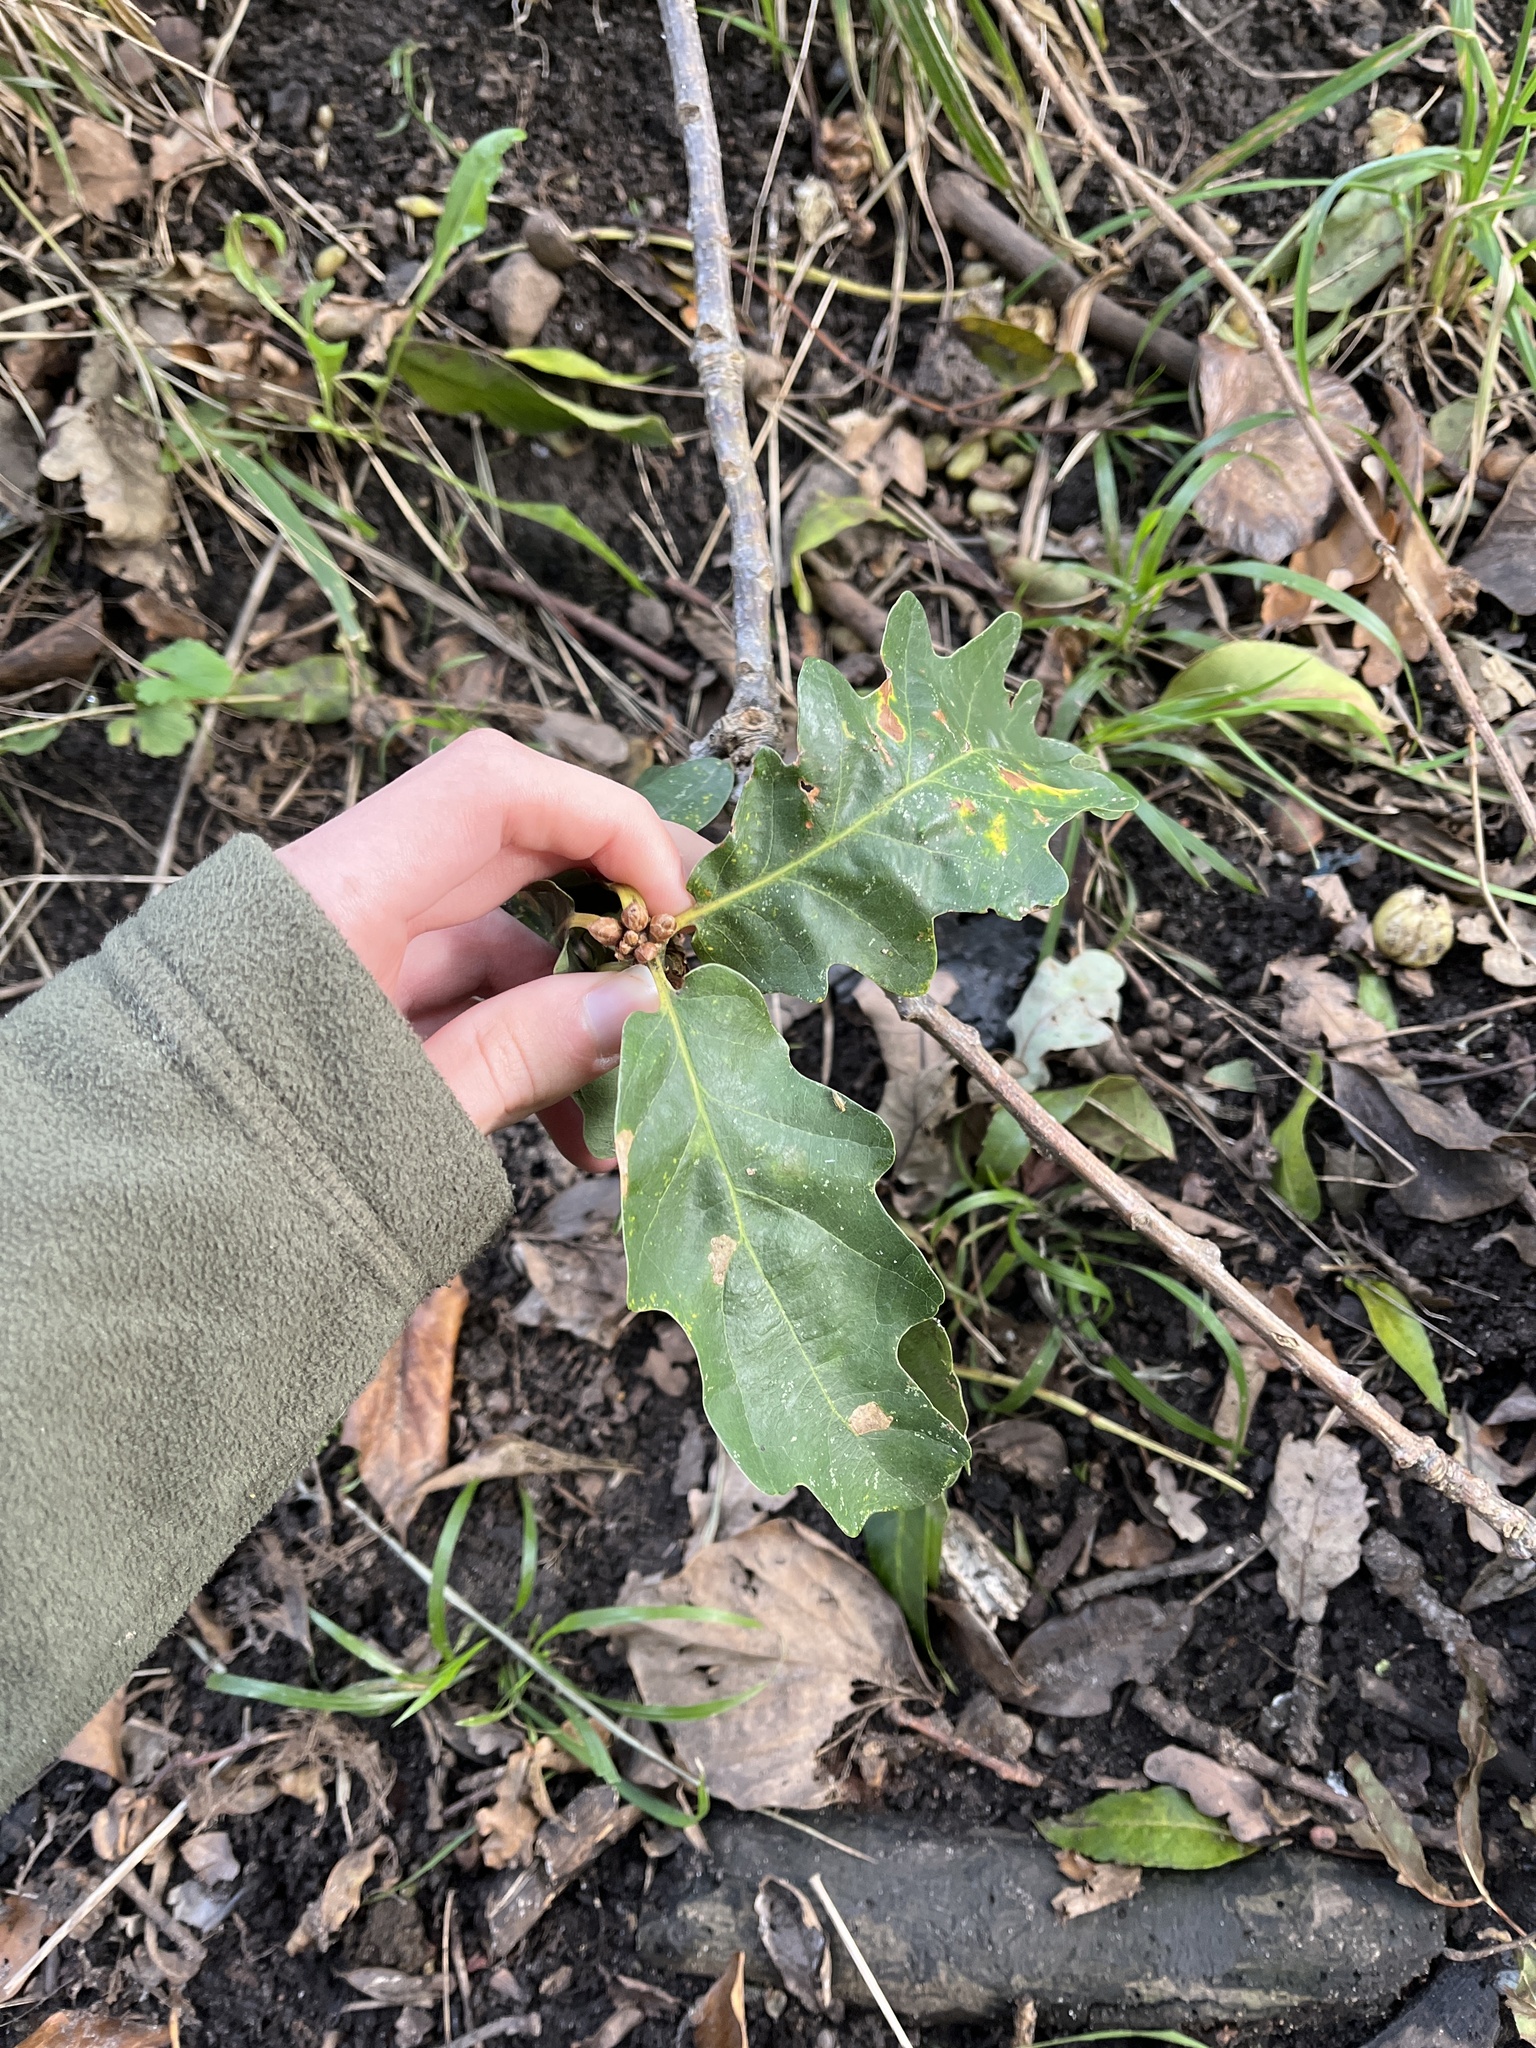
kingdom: Plantae
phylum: Tracheophyta
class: Magnoliopsida
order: Fagales
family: Fagaceae
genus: Quercus
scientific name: Quercus robur
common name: Pedunculate oak
